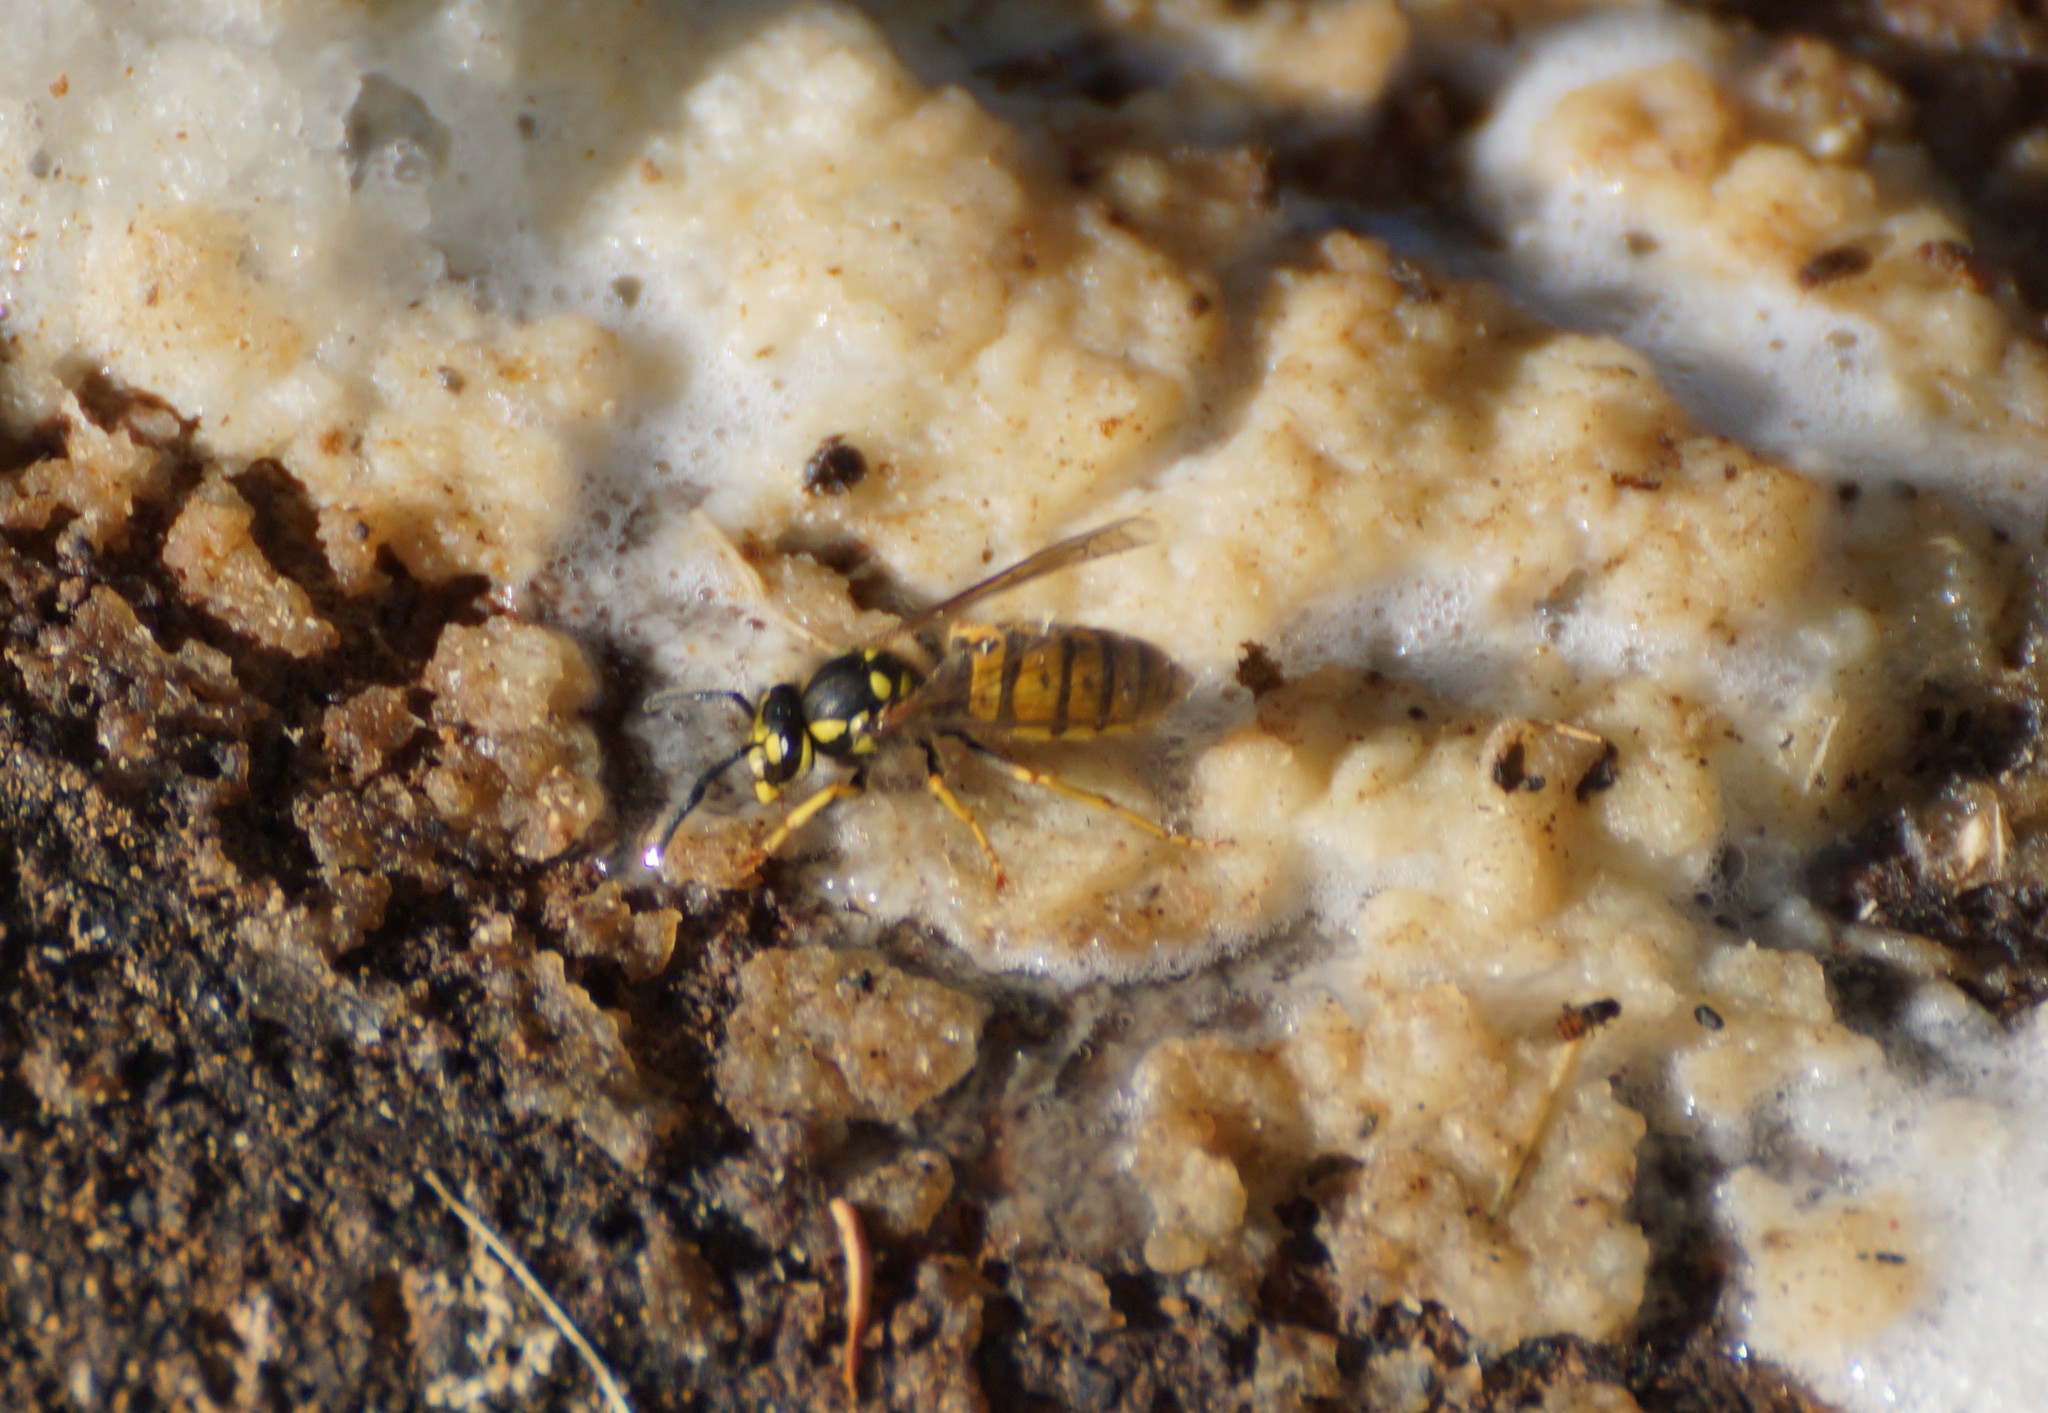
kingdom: Animalia
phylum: Arthropoda
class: Insecta
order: Hymenoptera
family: Vespidae
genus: Vespula
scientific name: Vespula germanica
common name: German wasp
